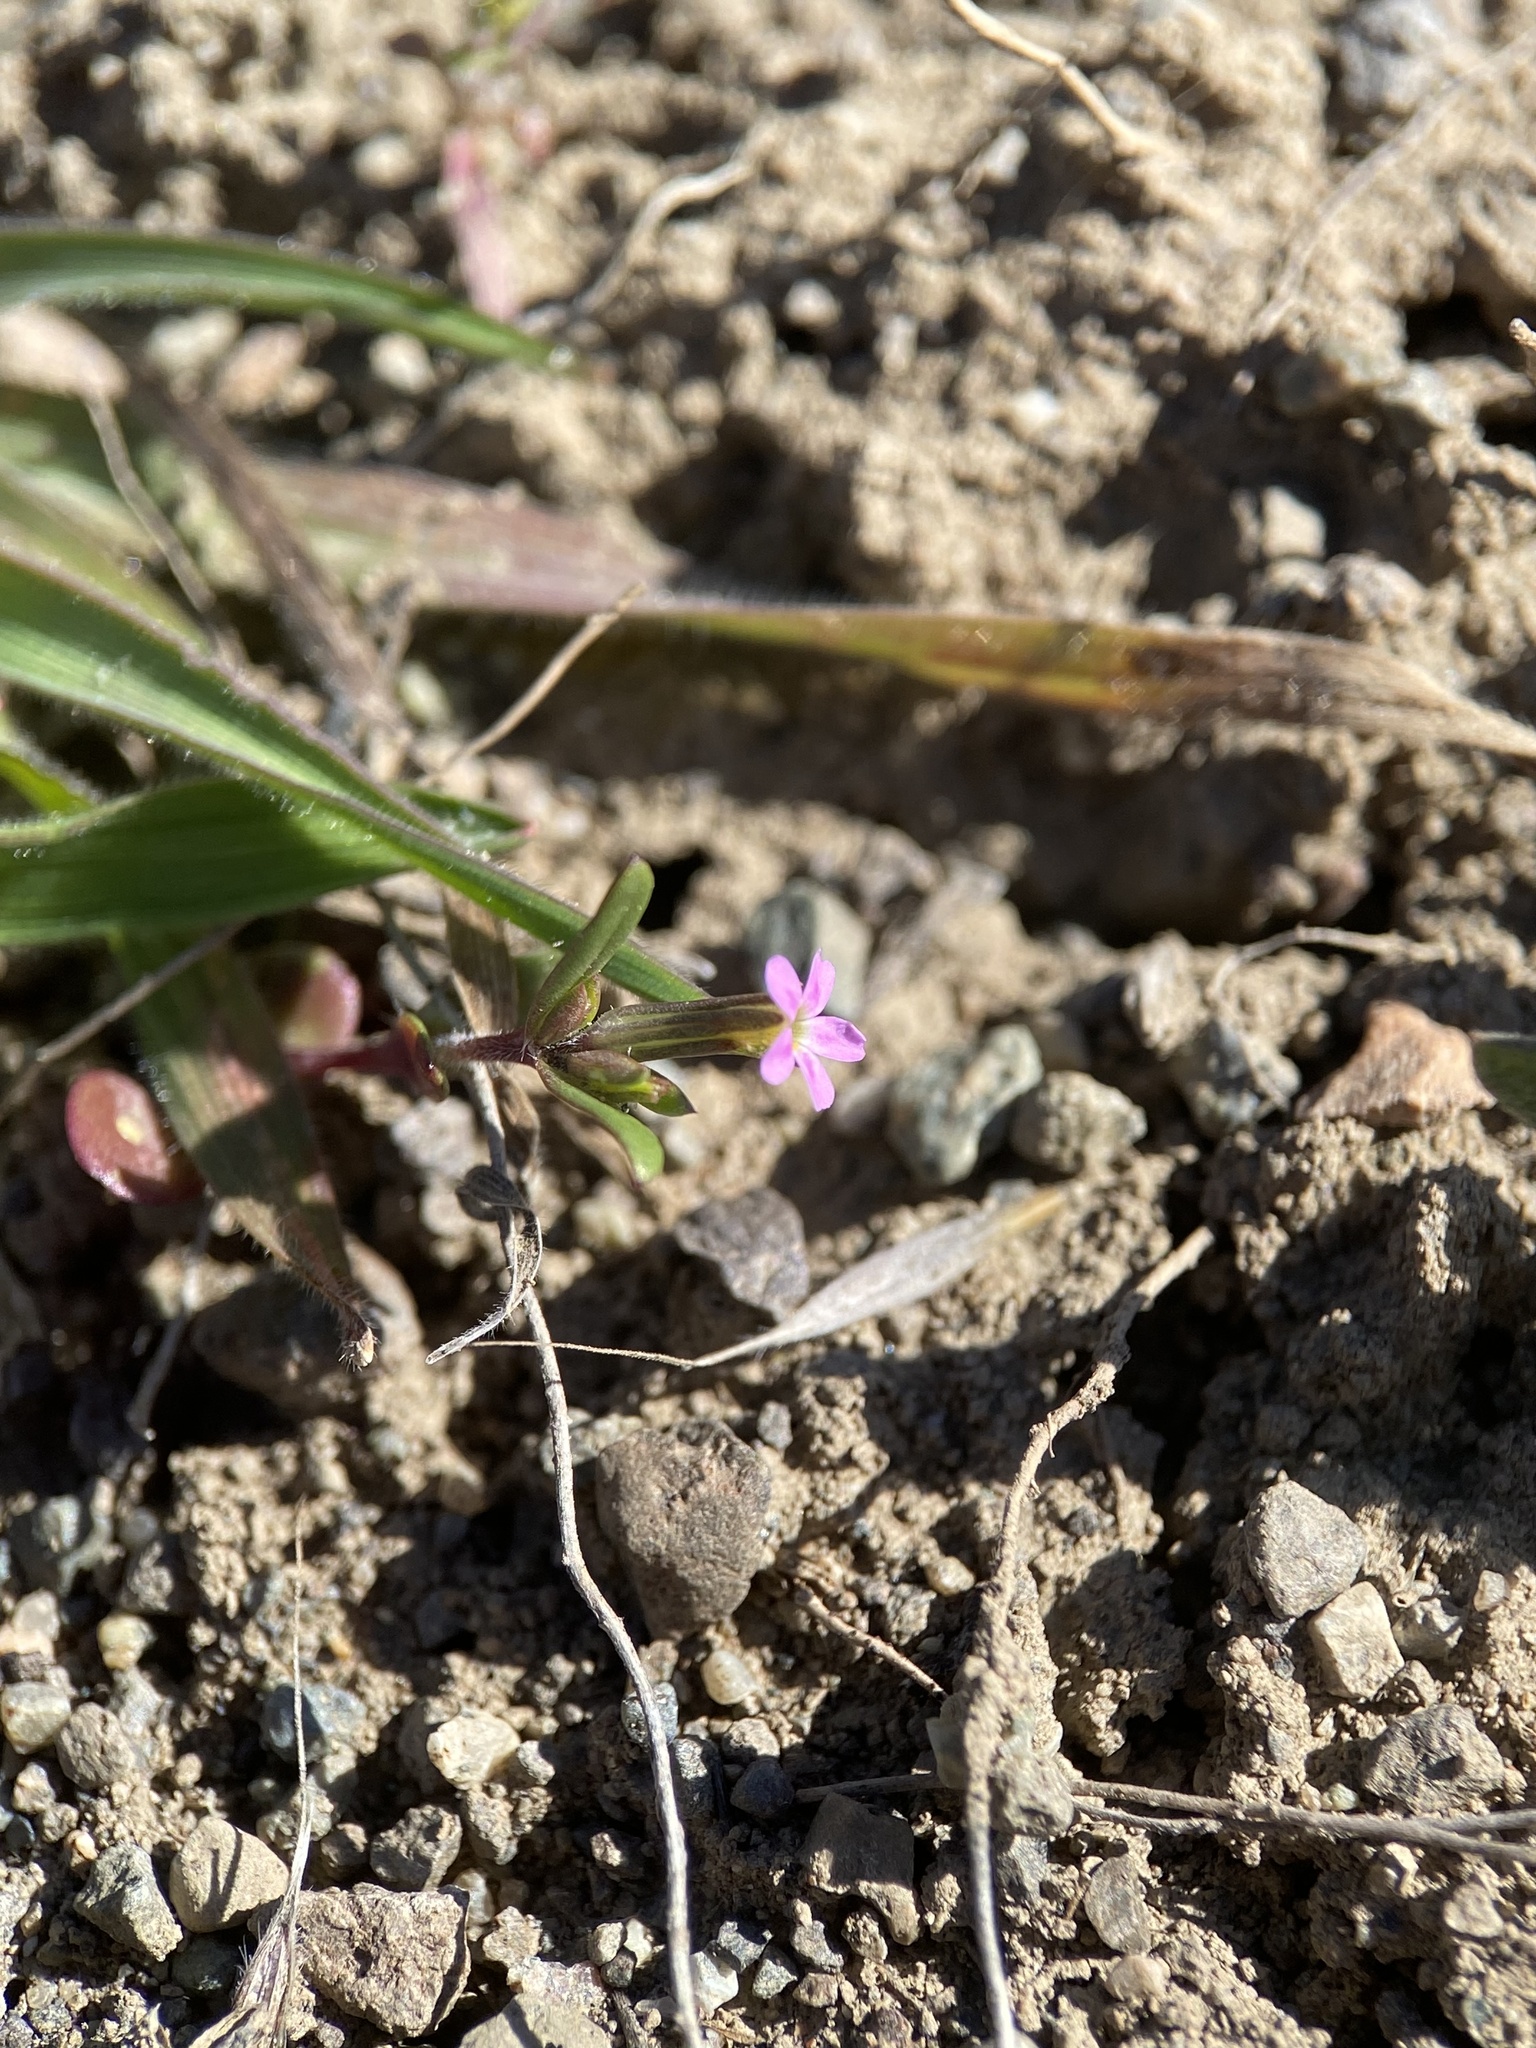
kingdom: Plantae
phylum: Tracheophyta
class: Magnoliopsida
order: Ericales
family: Polemoniaceae
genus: Phlox
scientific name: Phlox gracilis
